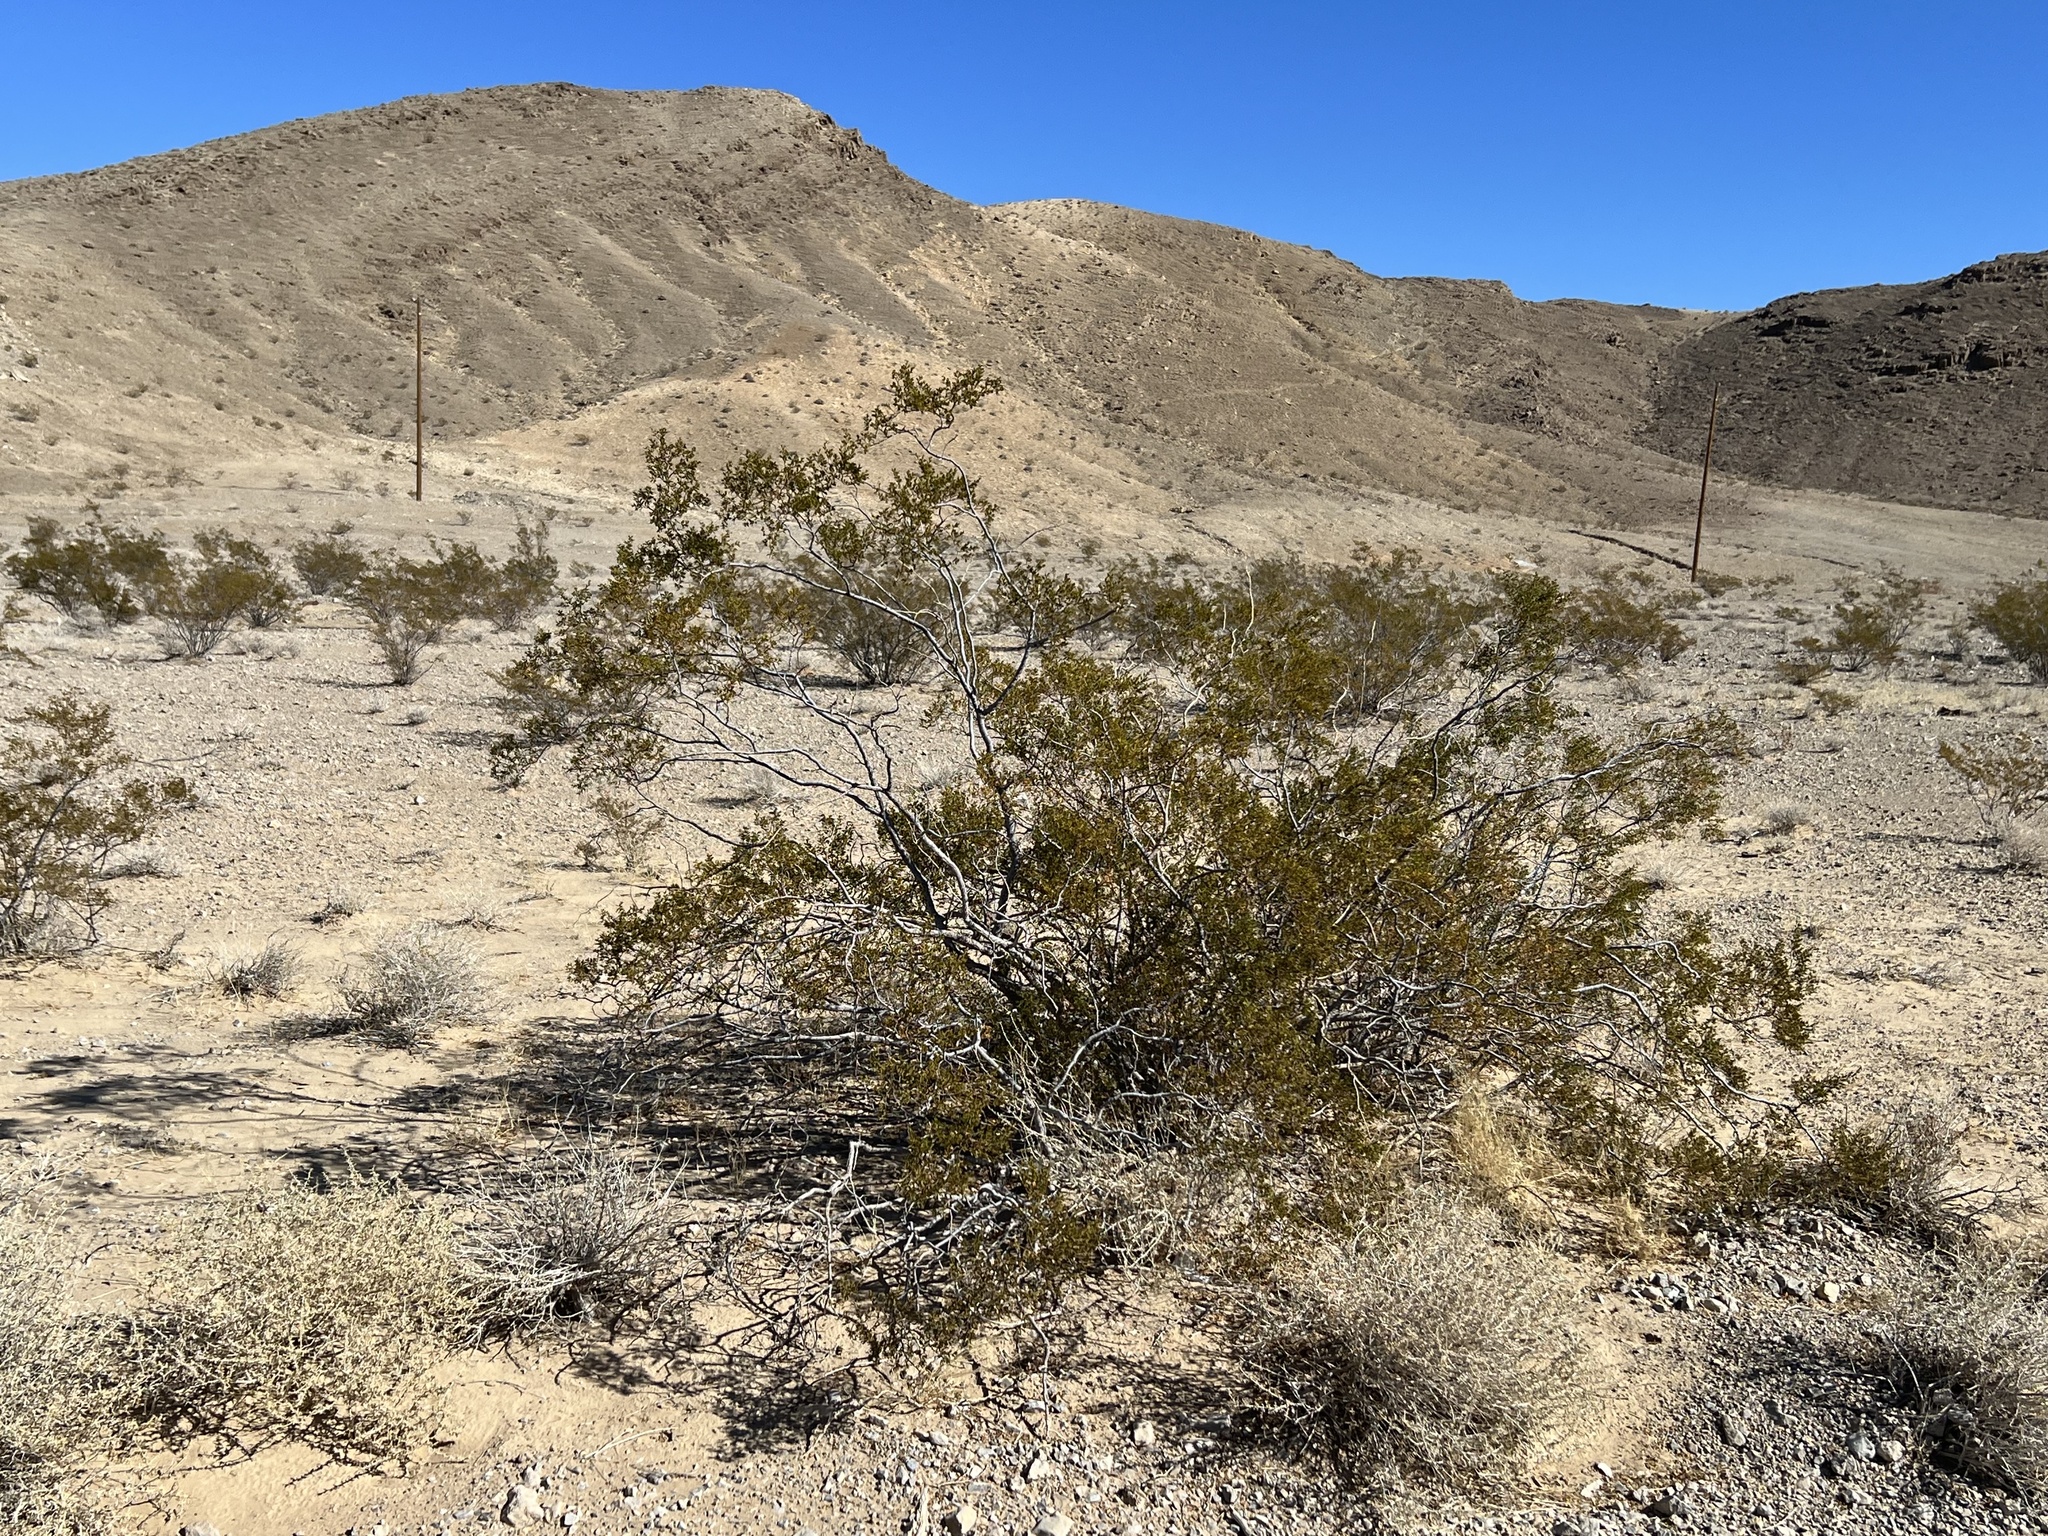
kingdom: Plantae
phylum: Tracheophyta
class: Magnoliopsida
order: Zygophyllales
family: Zygophyllaceae
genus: Larrea
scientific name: Larrea tridentata
